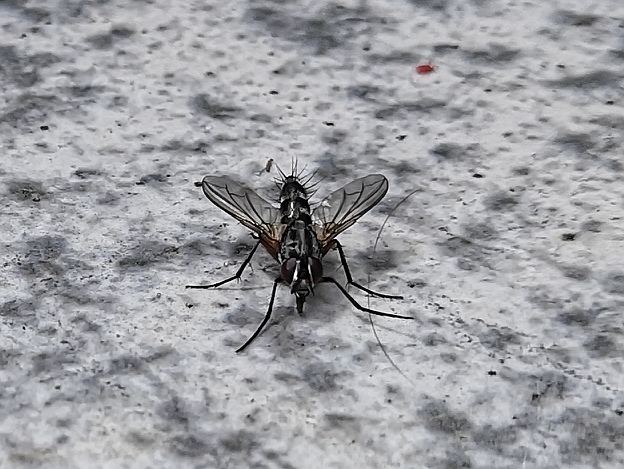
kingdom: Animalia
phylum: Arthropoda
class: Insecta
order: Diptera
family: Tachinidae
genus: Mintho
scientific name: Mintho rufiventris
